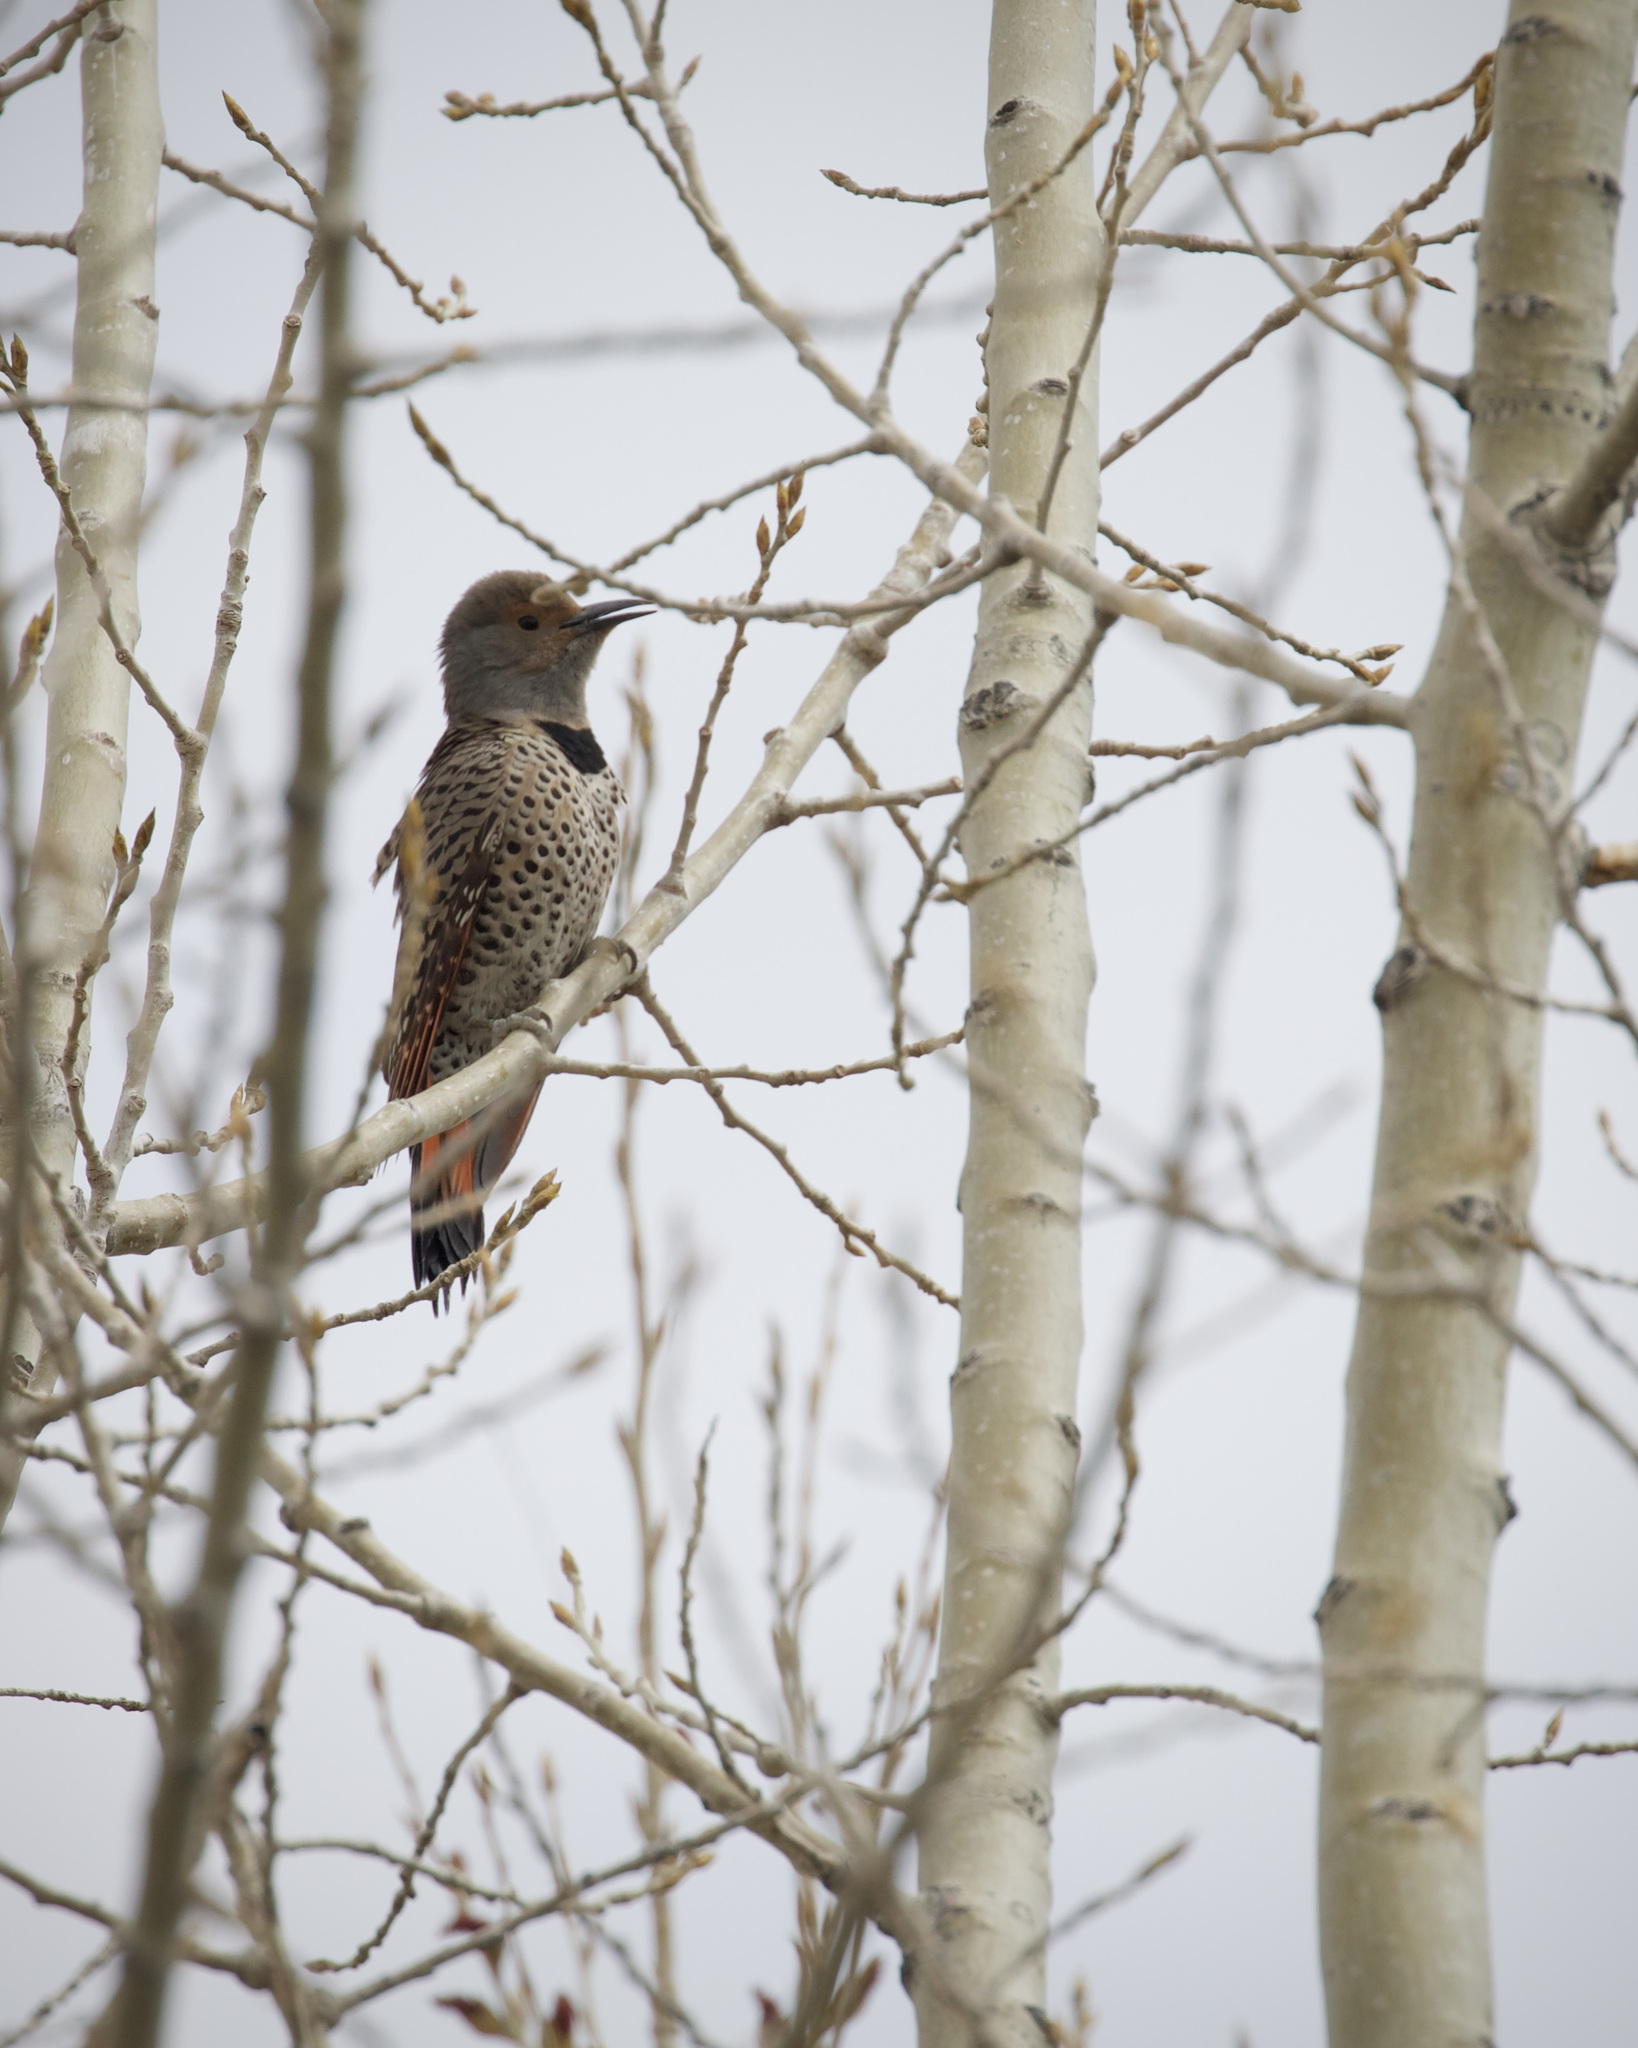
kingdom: Animalia
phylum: Chordata
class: Aves
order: Piciformes
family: Picidae
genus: Colaptes
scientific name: Colaptes auratus
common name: Northern flicker
